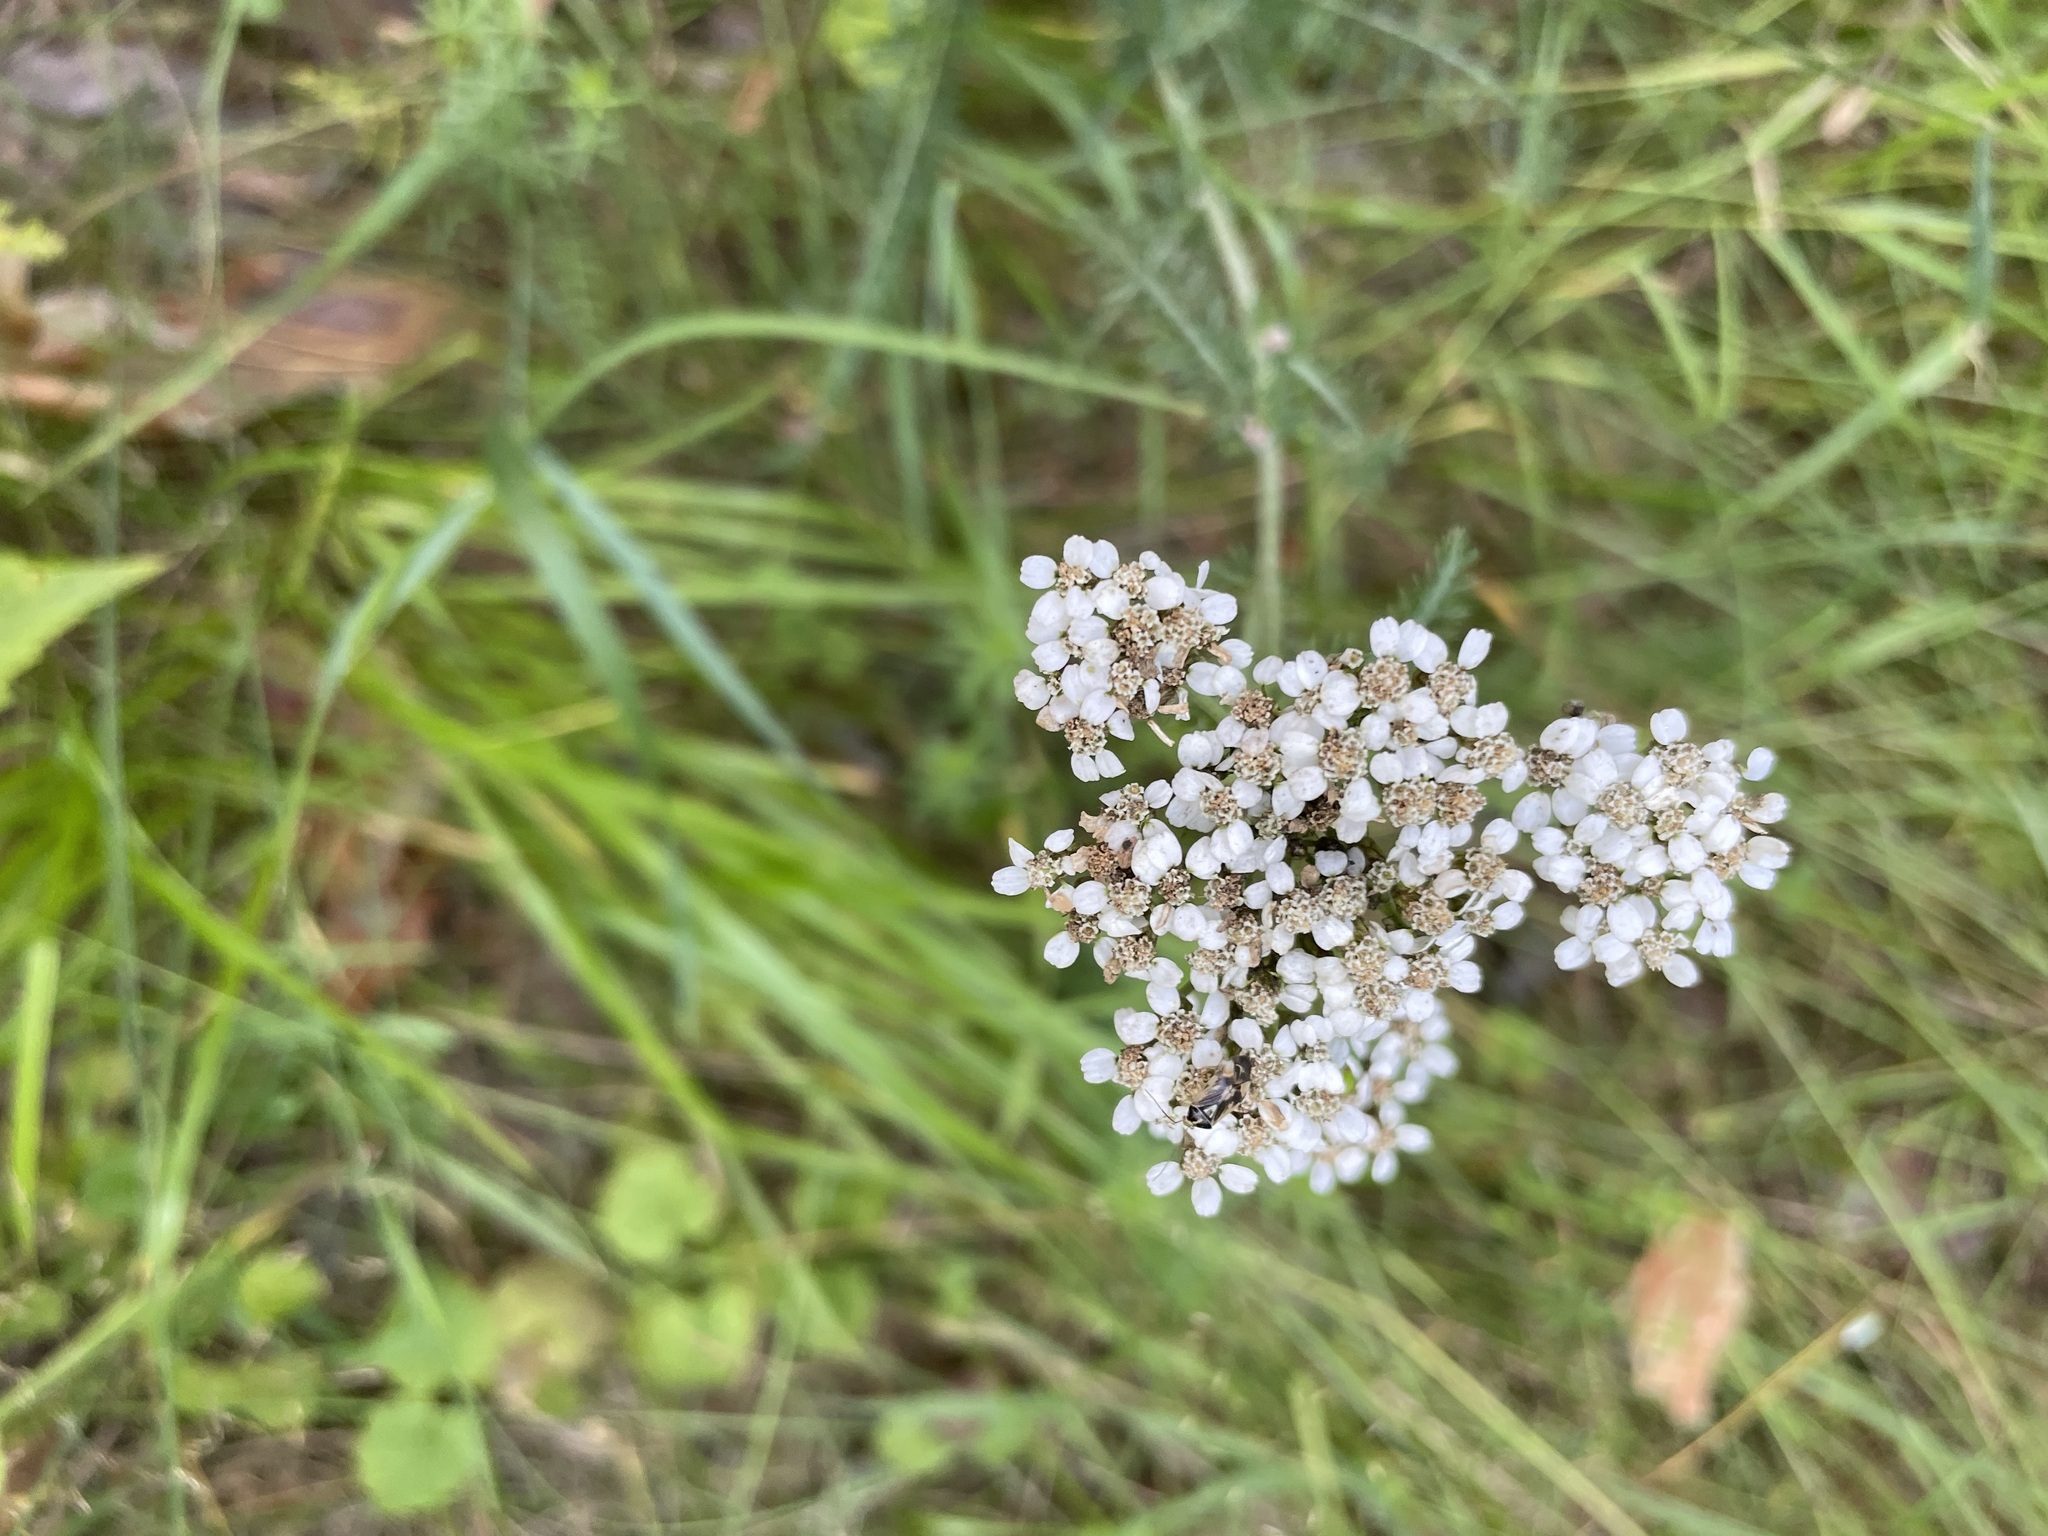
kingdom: Plantae
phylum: Tracheophyta
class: Magnoliopsida
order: Asterales
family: Asteraceae
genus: Achillea
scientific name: Achillea millefolium
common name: Yarrow
